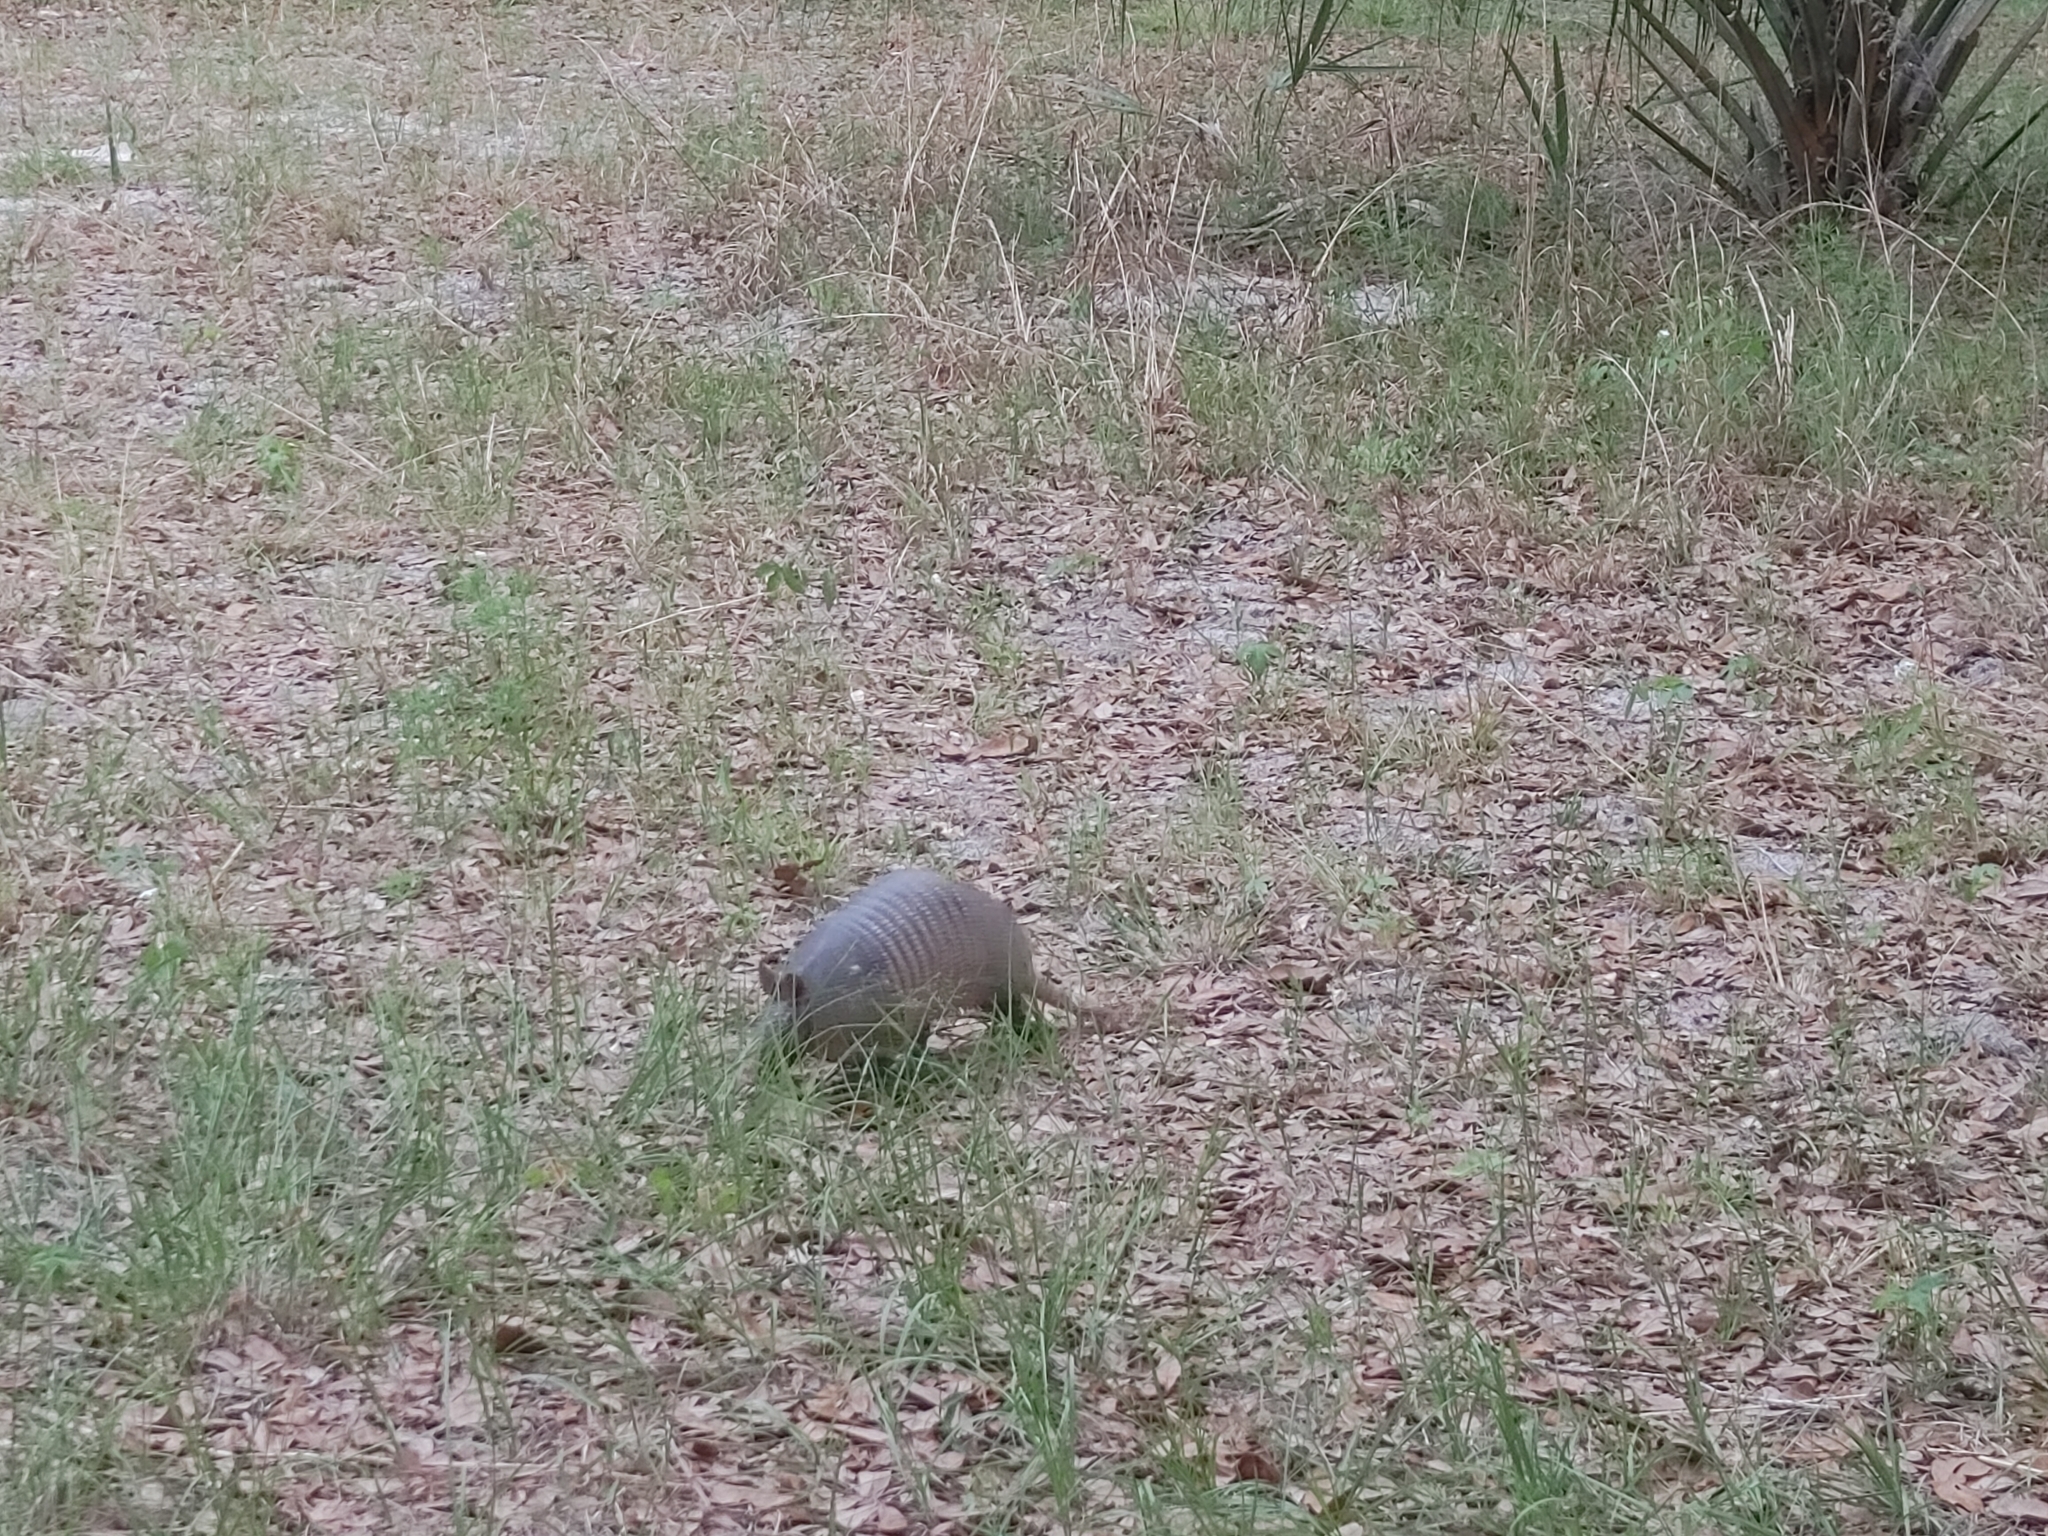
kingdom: Animalia
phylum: Chordata
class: Mammalia
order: Cingulata
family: Dasypodidae
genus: Dasypus
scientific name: Dasypus novemcinctus
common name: Nine-banded armadillo
